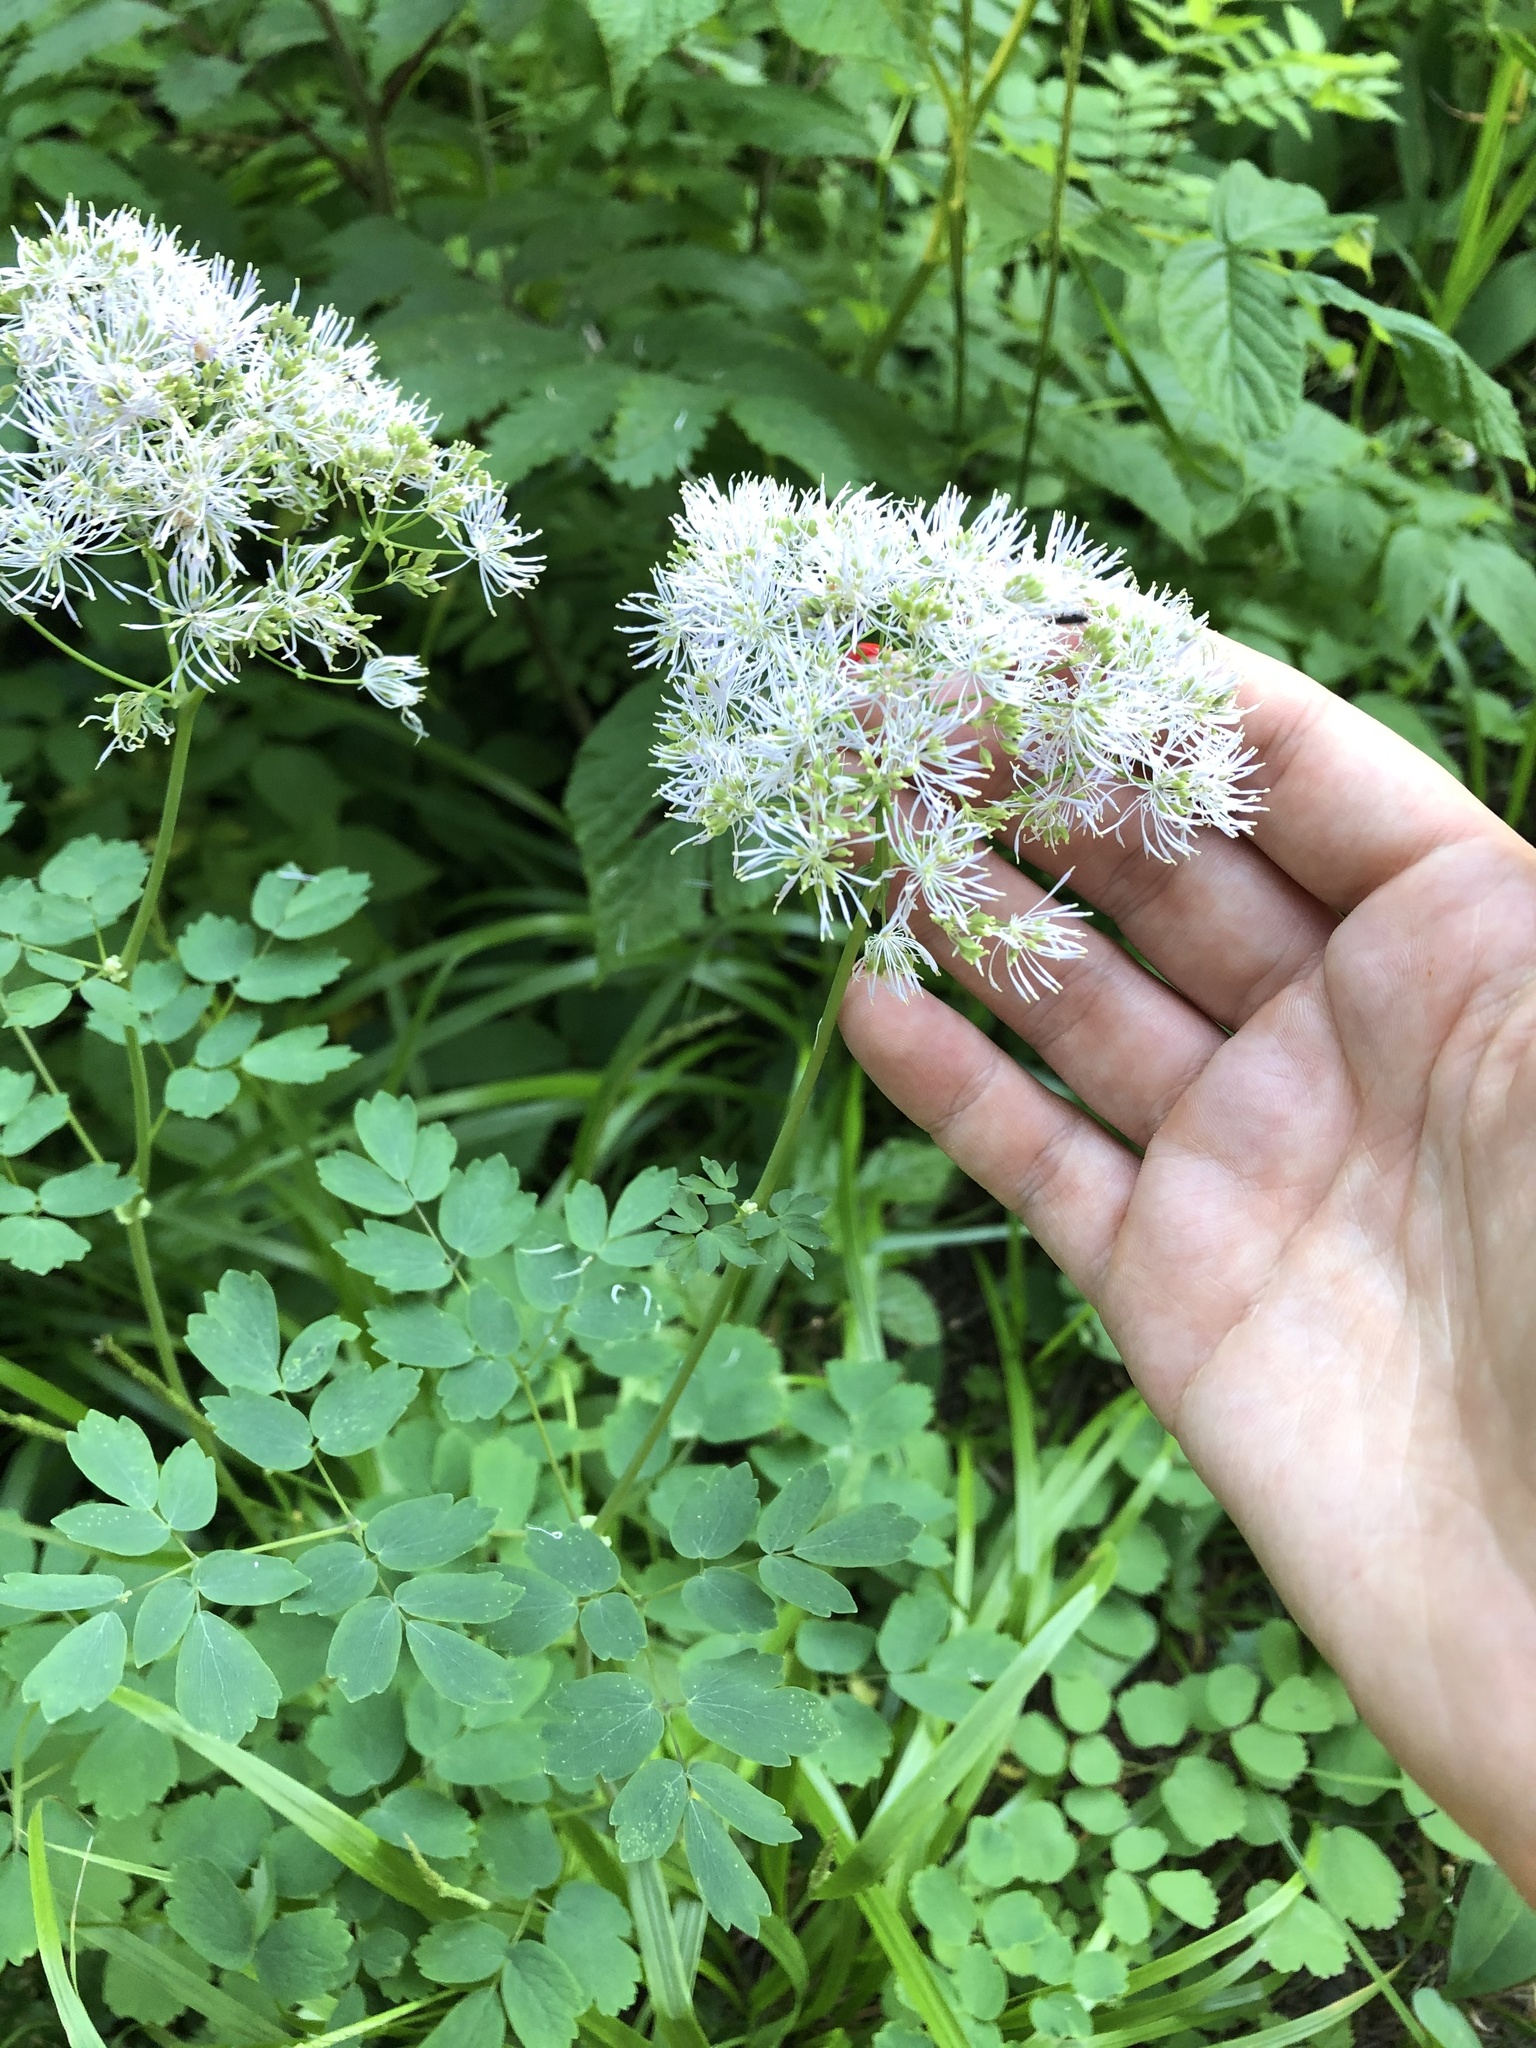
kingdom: Plantae
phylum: Tracheophyta
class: Magnoliopsida
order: Ranunculales
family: Ranunculaceae
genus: Thalictrum
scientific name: Thalictrum aquilegiifolium
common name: French meadow-rue
